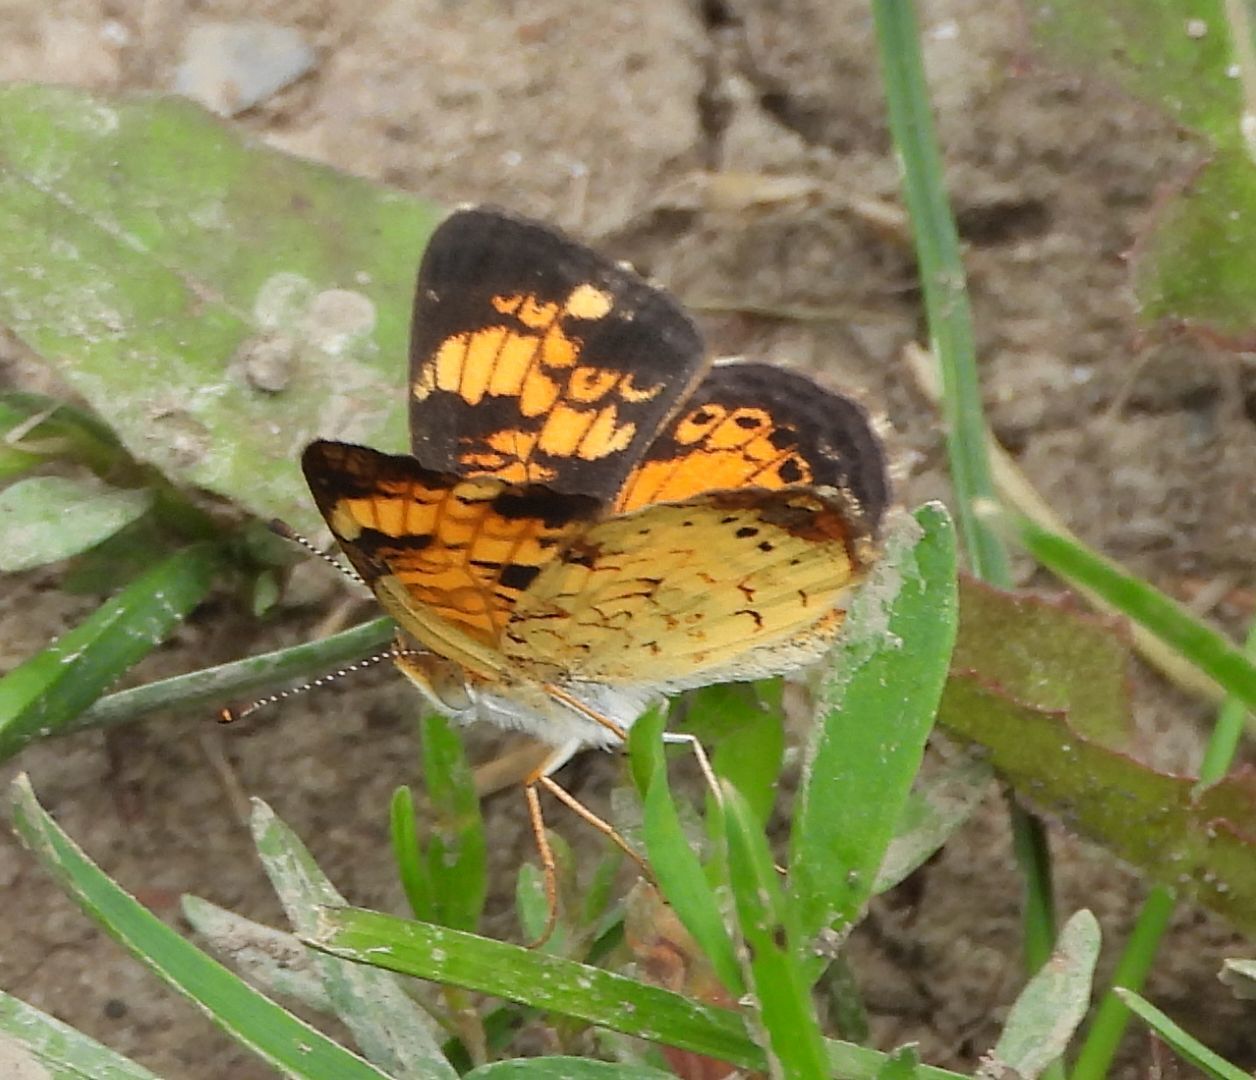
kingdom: Animalia
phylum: Arthropoda
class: Insecta
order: Lepidoptera
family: Nymphalidae
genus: Phyciodes
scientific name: Phyciodes tharos
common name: Pearl crescent
